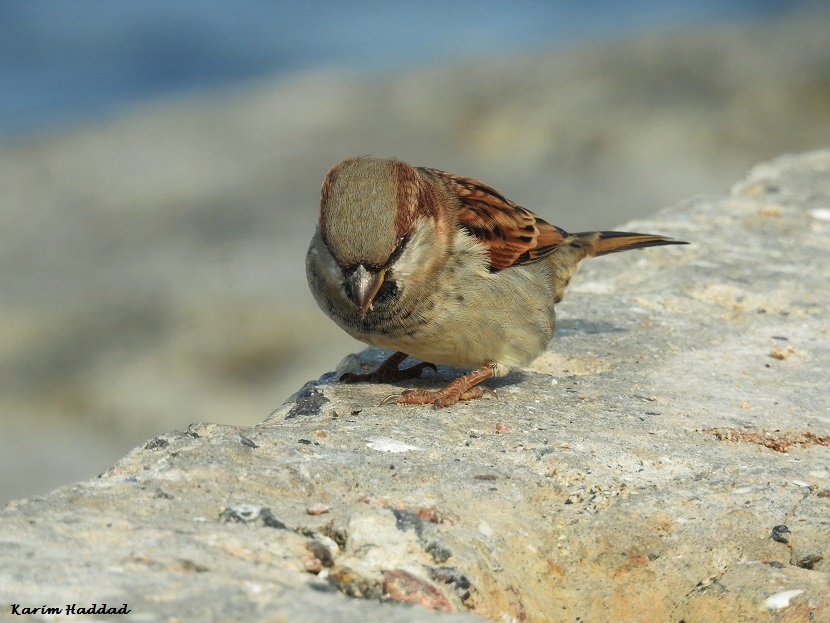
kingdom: Animalia
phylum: Chordata
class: Aves
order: Passeriformes
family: Passeridae
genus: Passer
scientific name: Passer domesticus
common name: House sparrow
